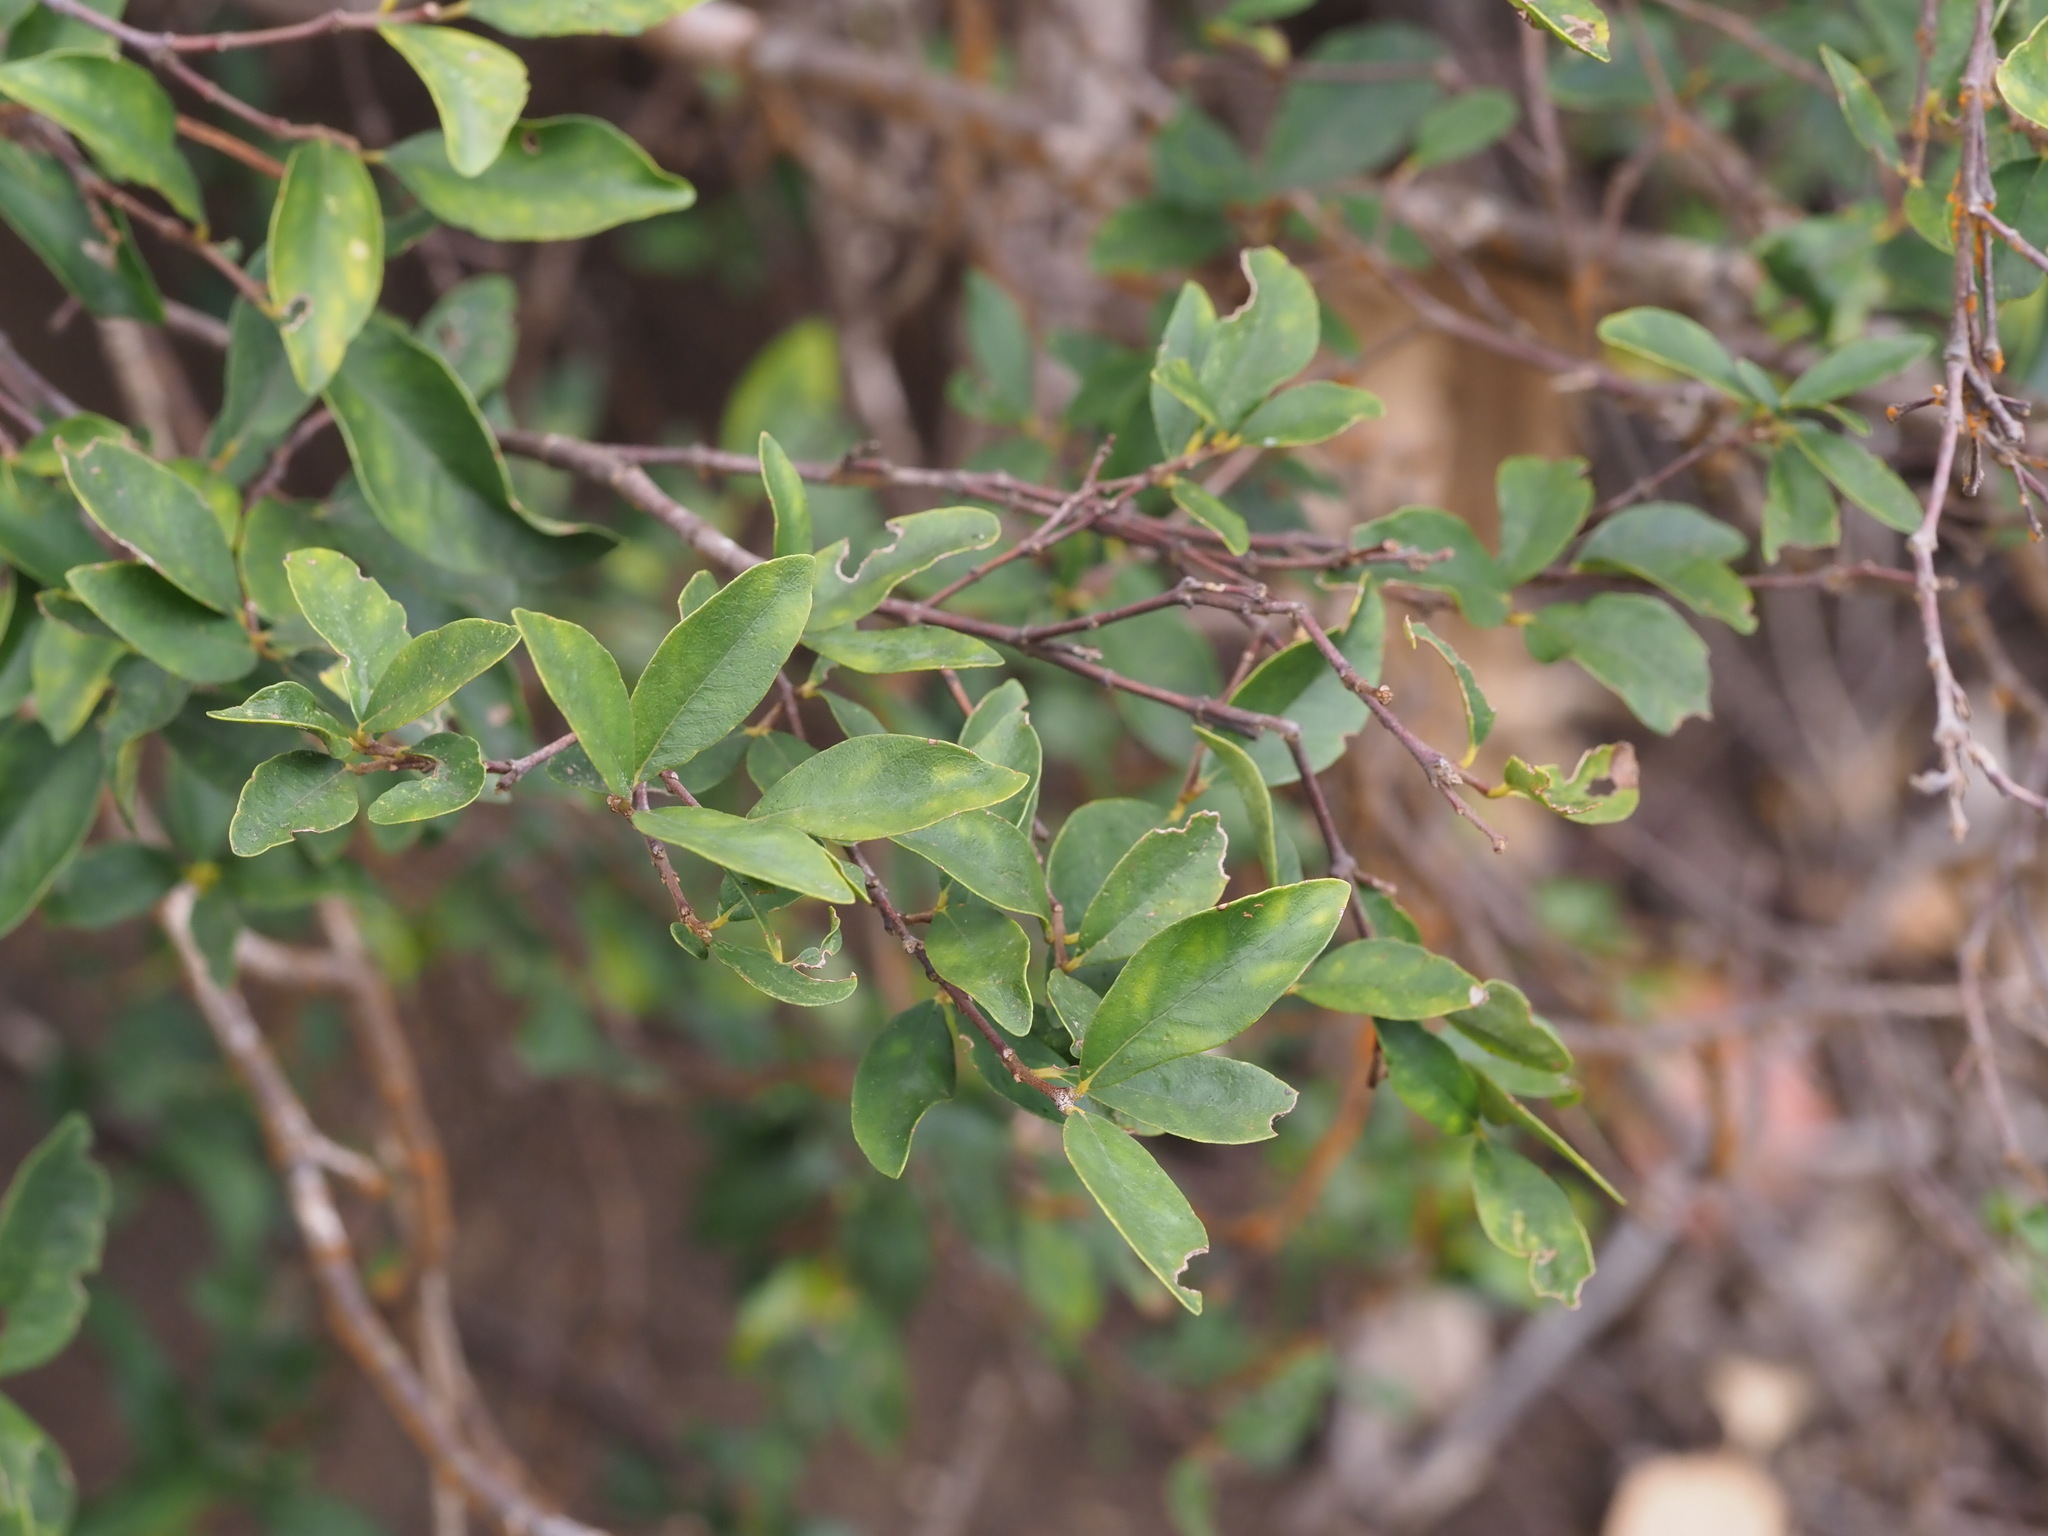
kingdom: Plantae
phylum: Tracheophyta
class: Magnoliopsida
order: Malvales
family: Thymelaeaceae
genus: Wikstroemia
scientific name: Wikstroemia oahuensis
